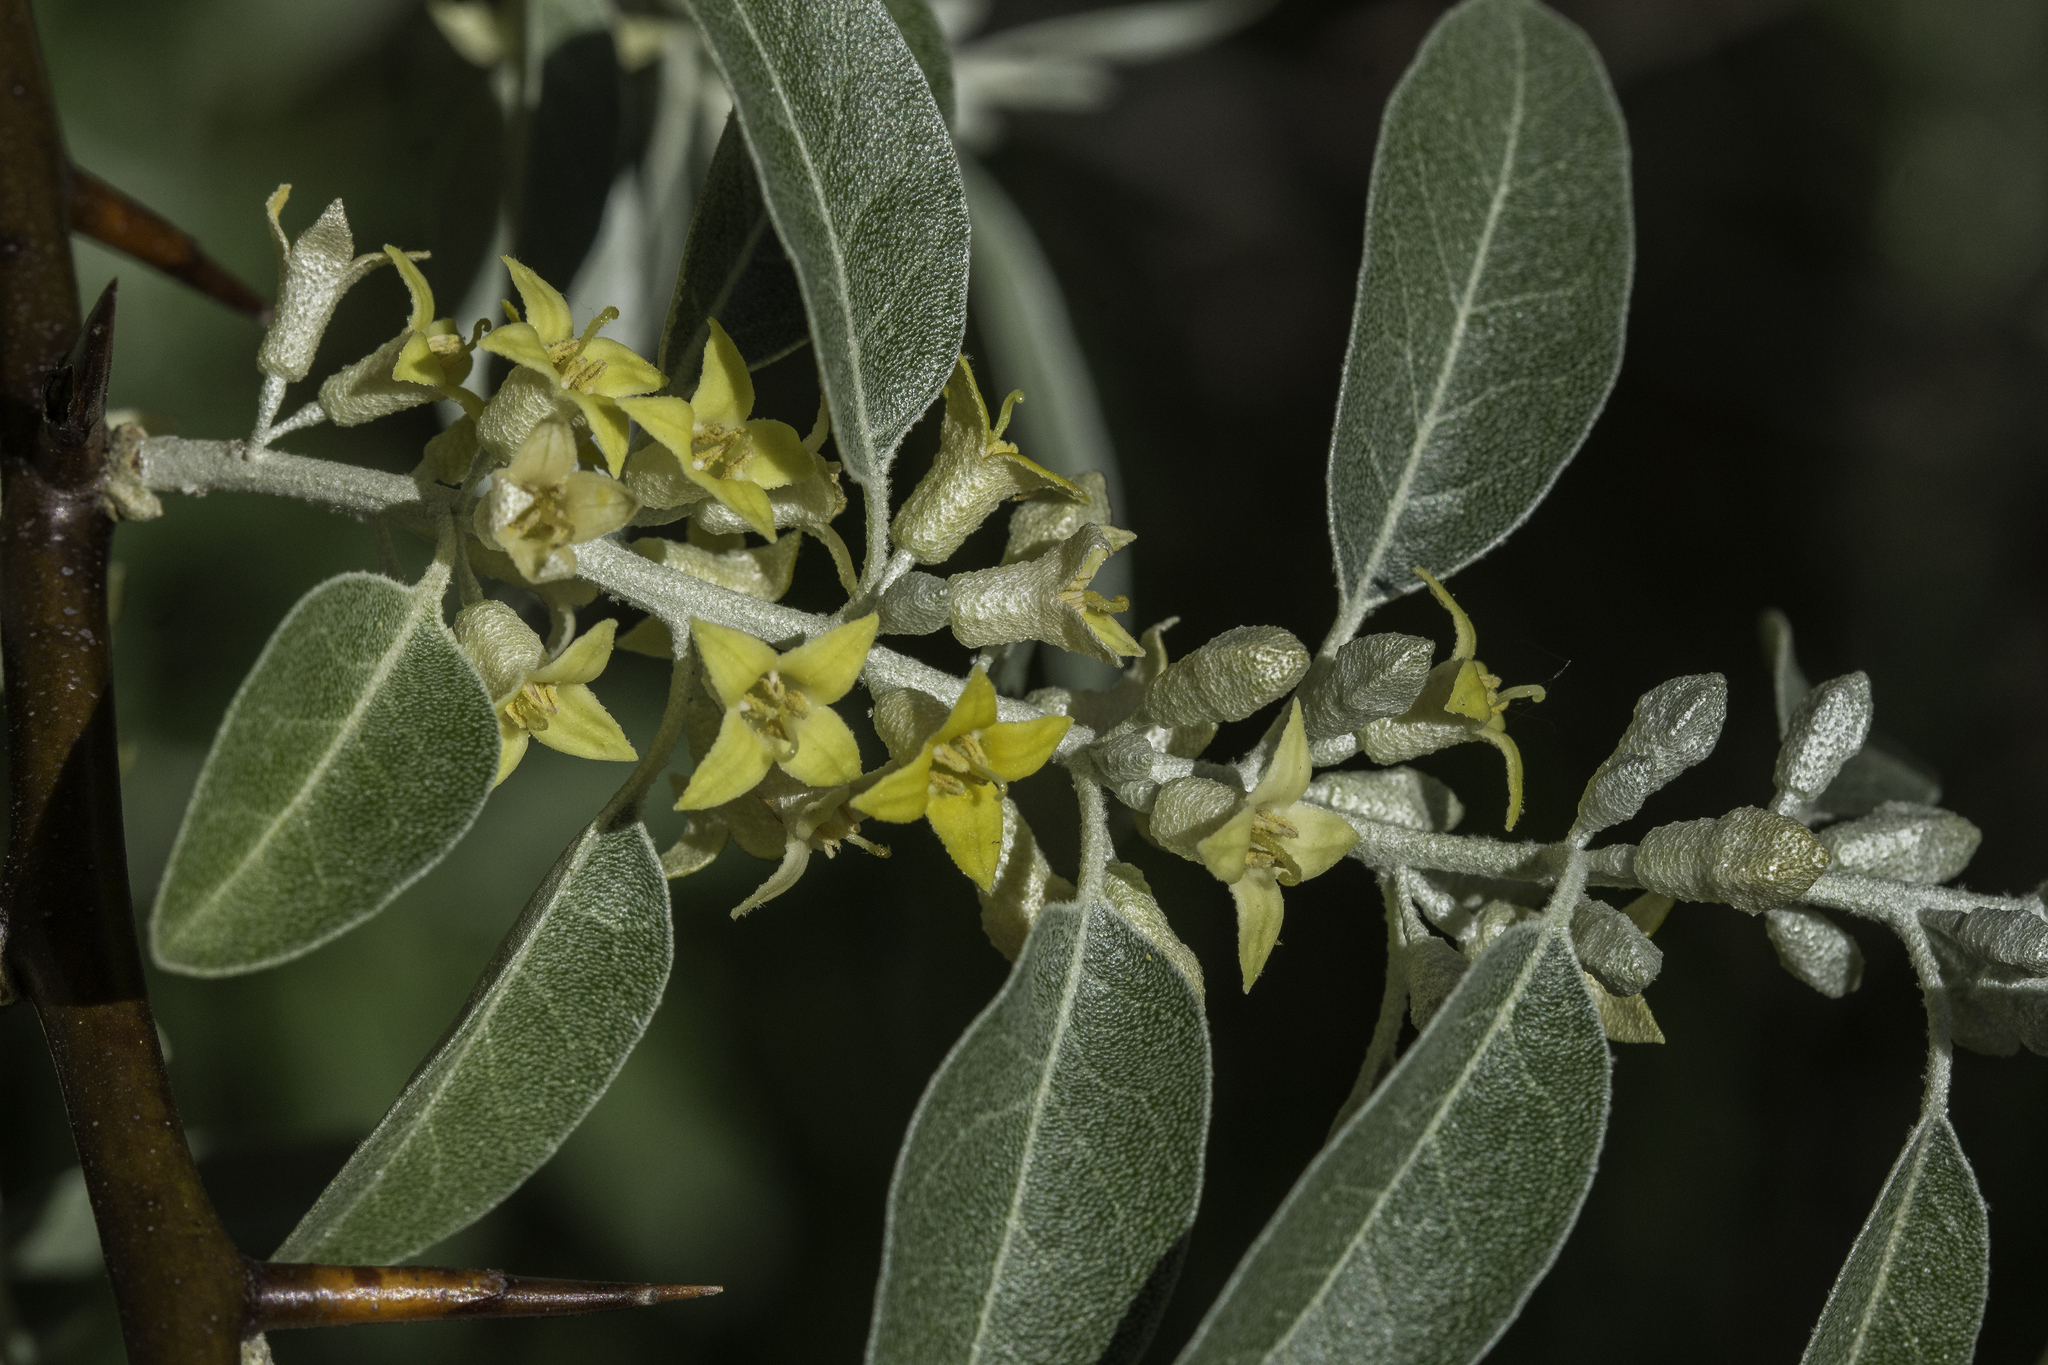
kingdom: Plantae
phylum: Tracheophyta
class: Magnoliopsida
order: Rosales
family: Elaeagnaceae
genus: Elaeagnus
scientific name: Elaeagnus angustifolia
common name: Russian olive
